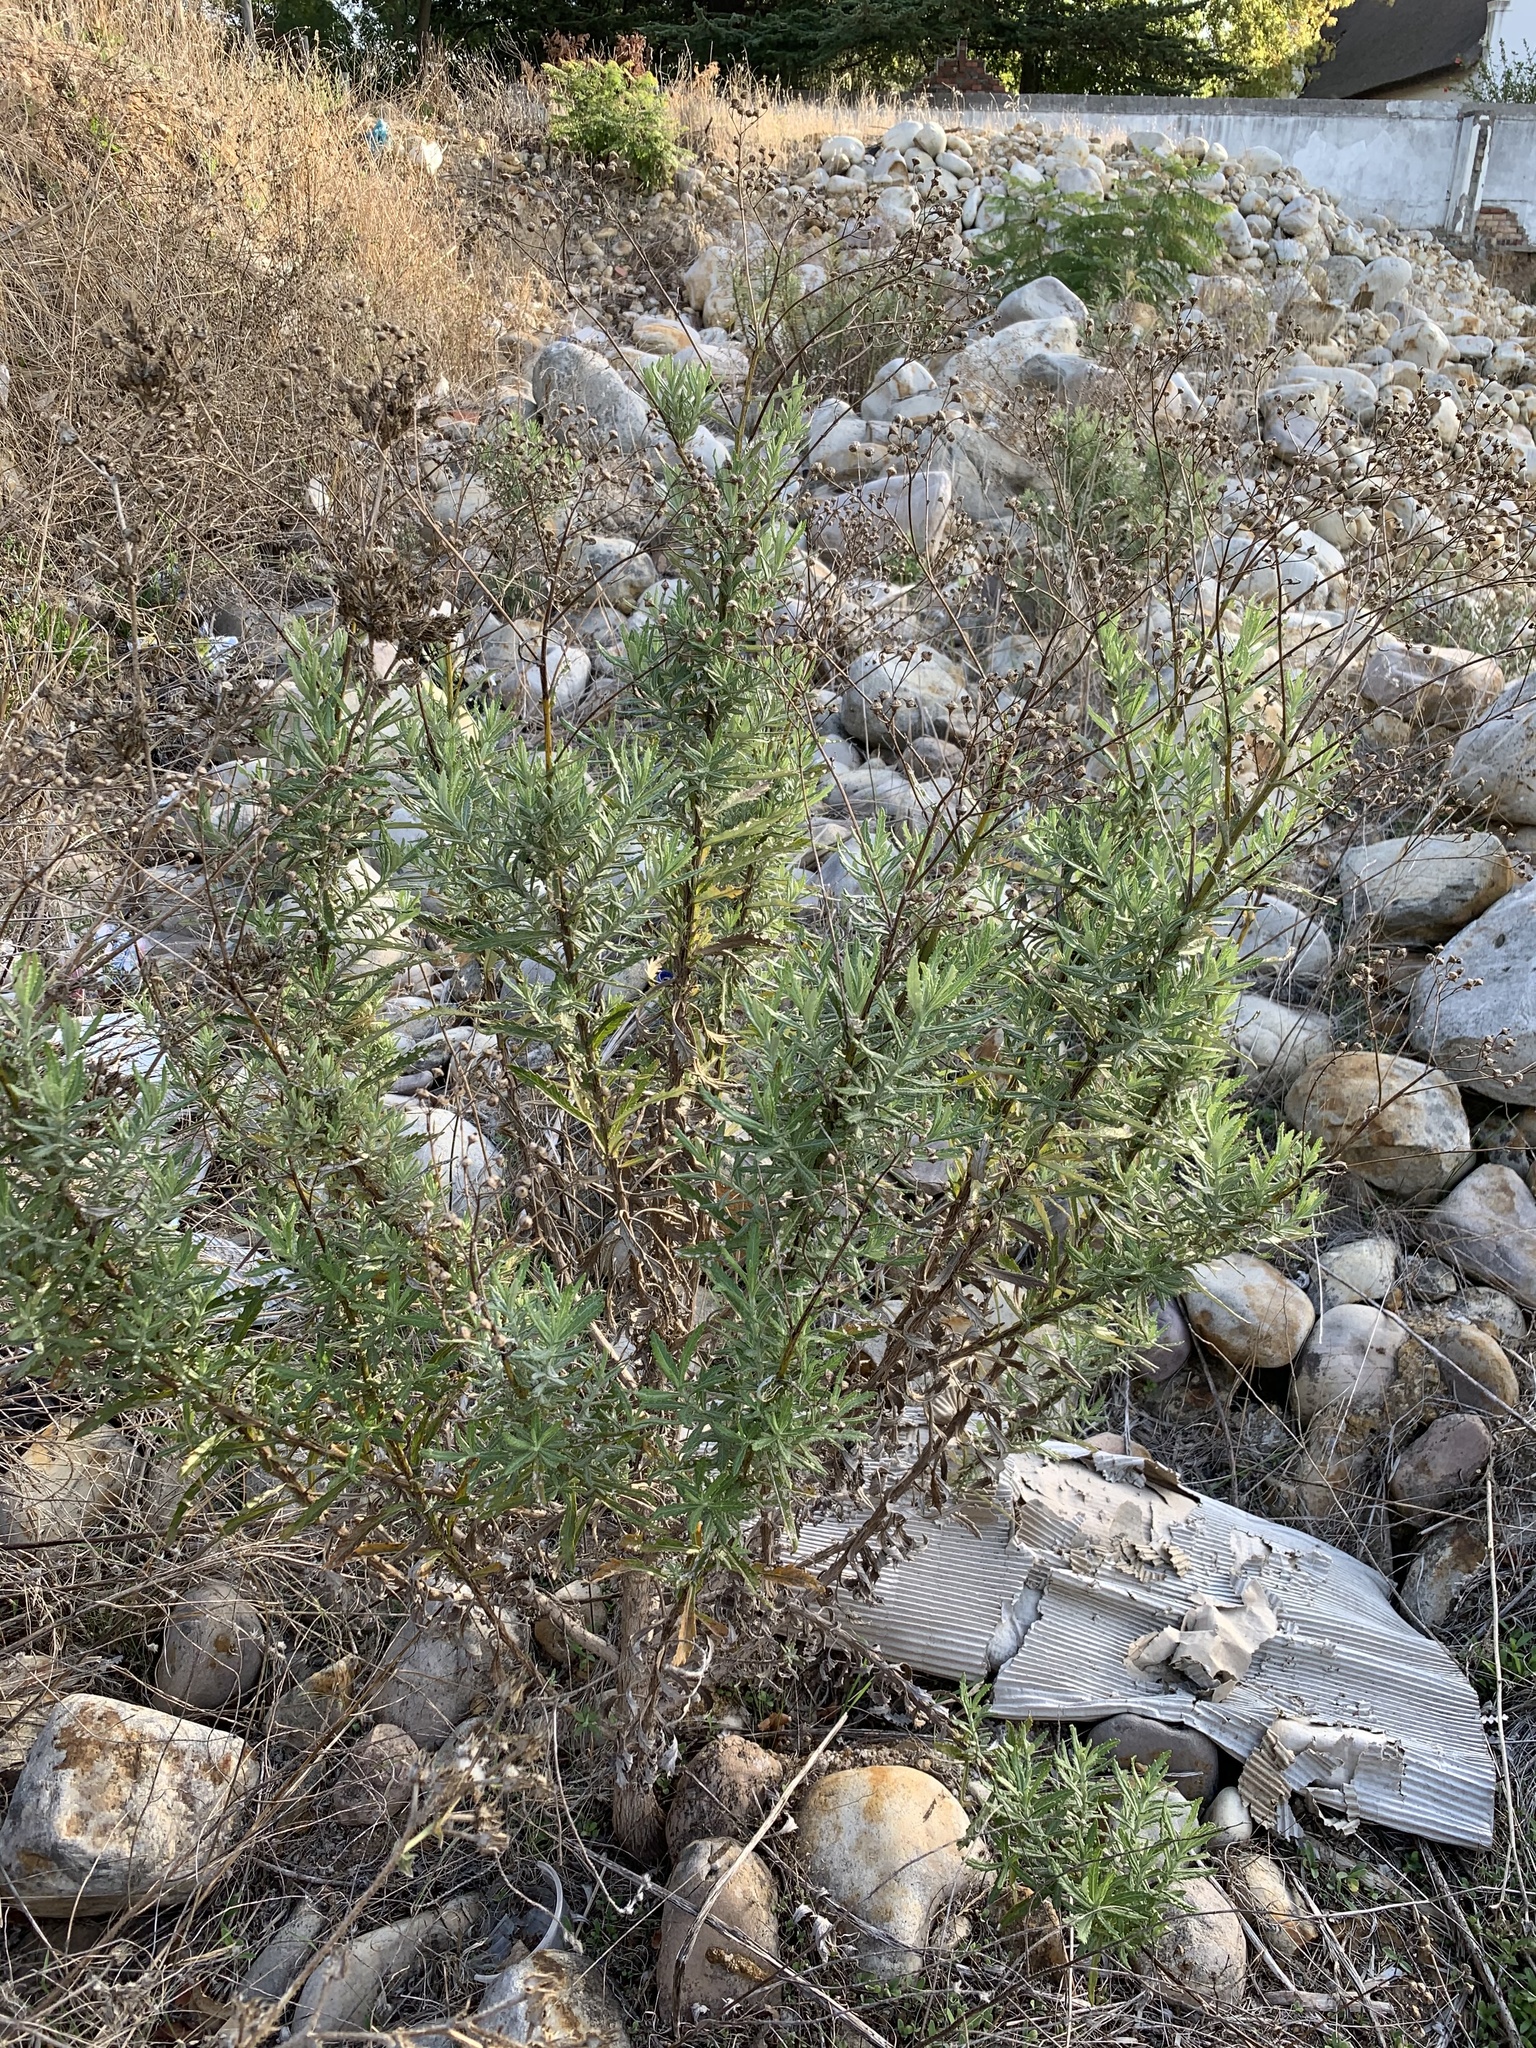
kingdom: Plantae
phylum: Tracheophyta
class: Magnoliopsida
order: Asterales
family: Asteraceae
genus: Senecio
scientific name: Senecio pterophorus
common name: Shoddy ragwort
